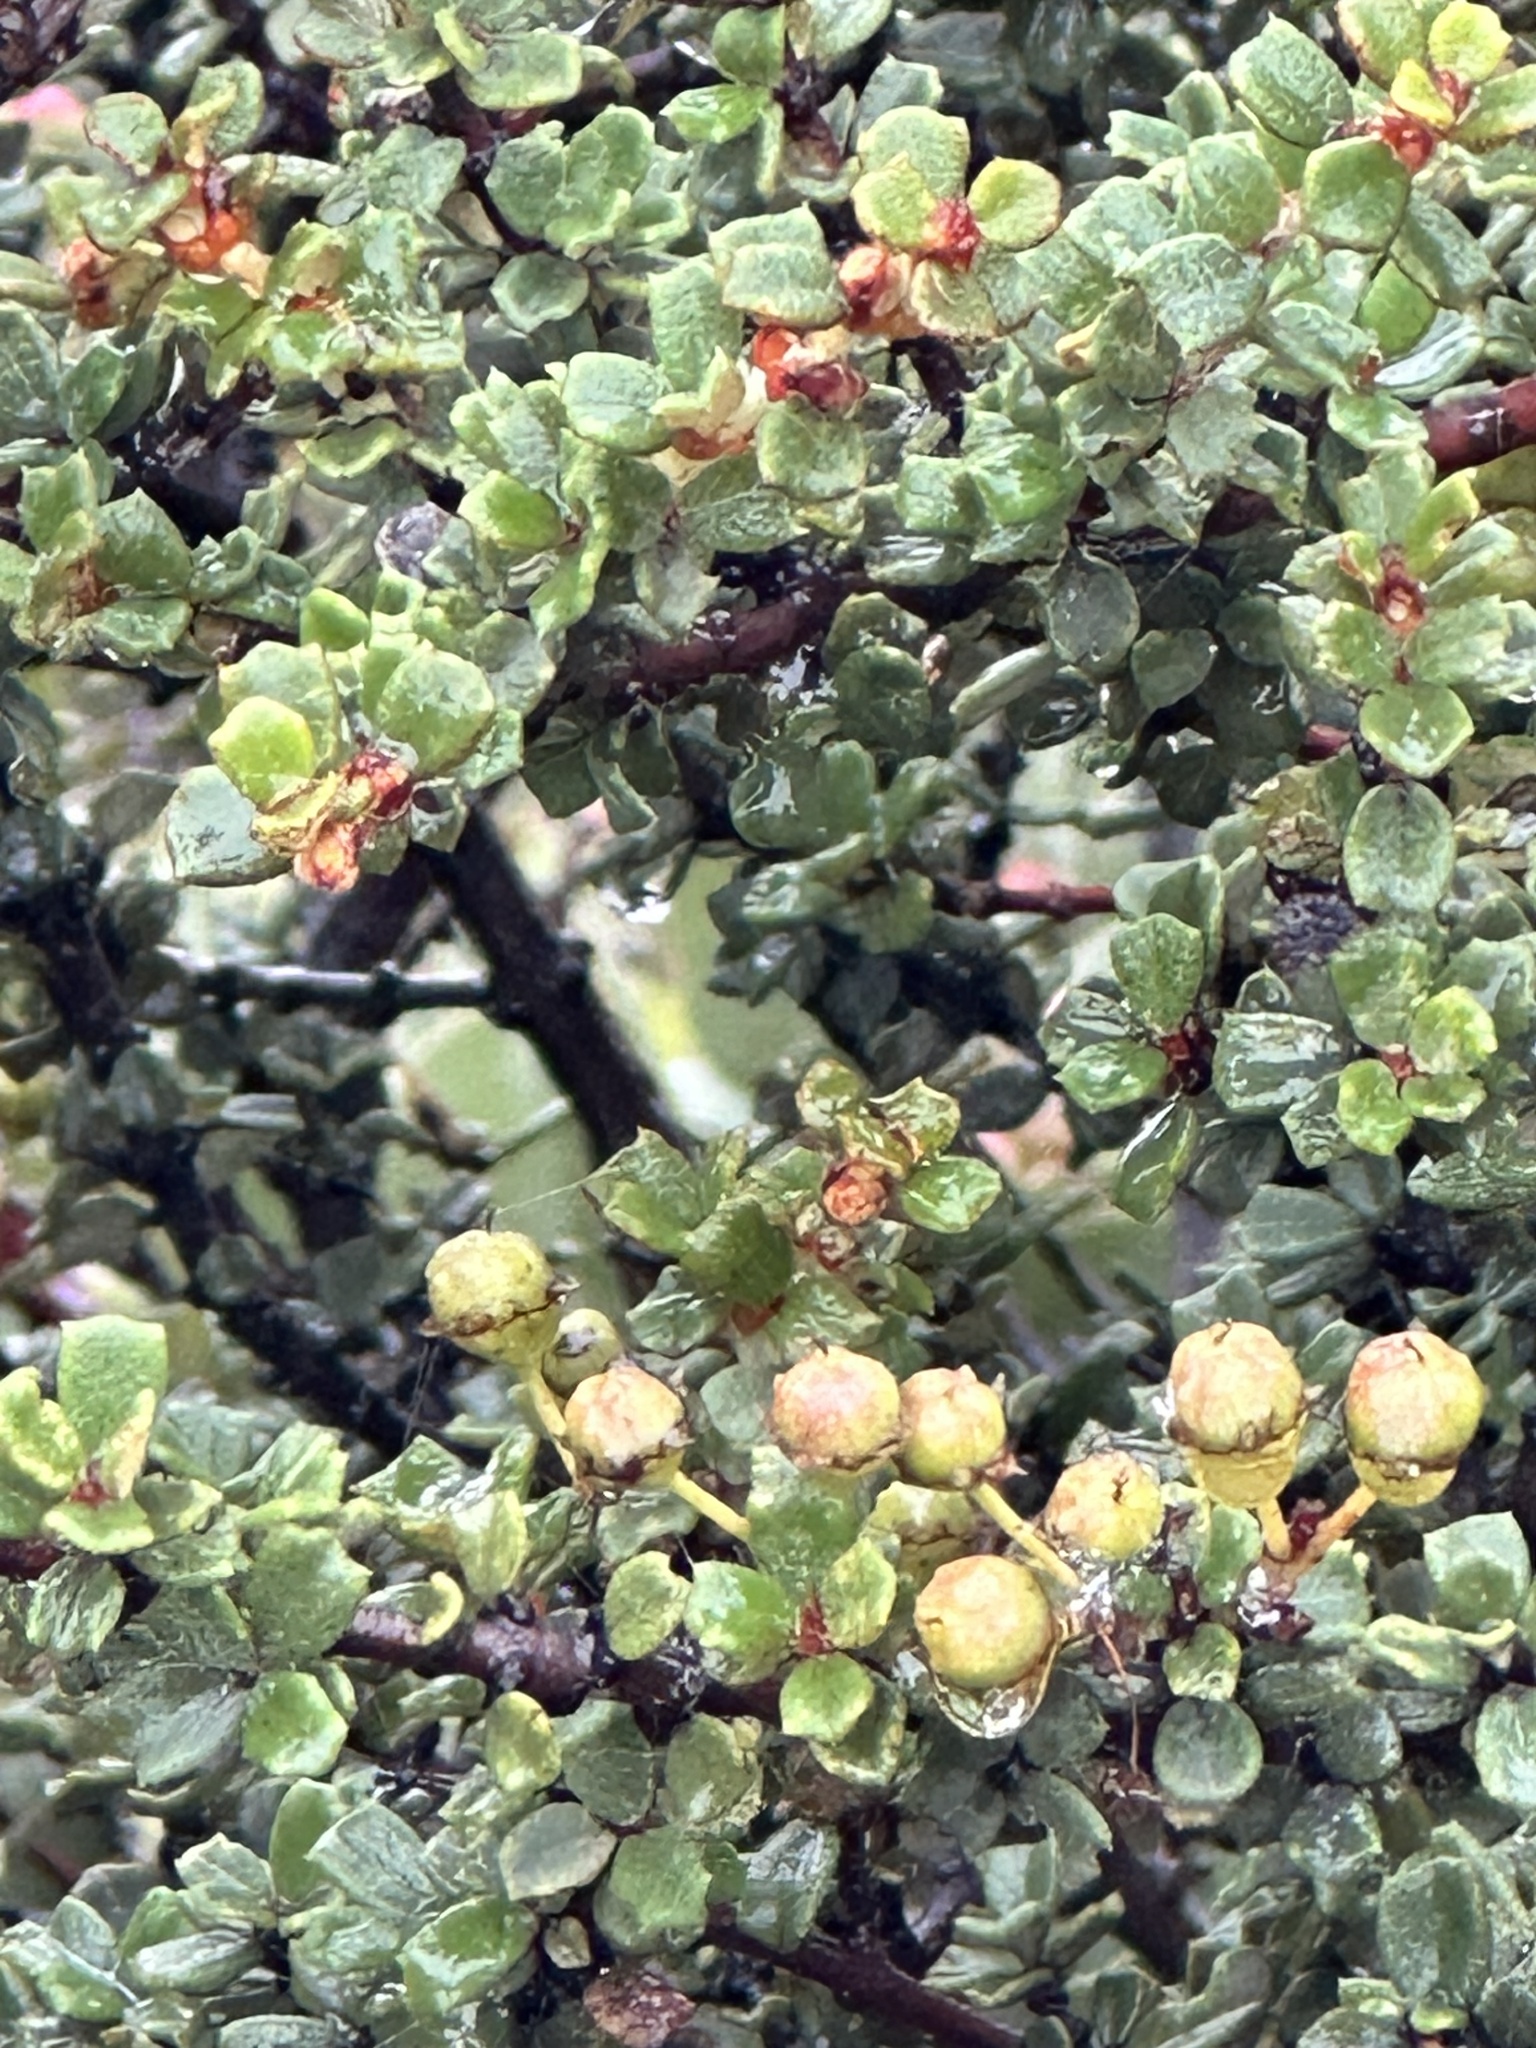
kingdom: Plantae
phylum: Tracheophyta
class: Magnoliopsida
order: Rosales
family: Rhamnaceae
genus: Ceanothus
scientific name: Ceanothus otayensis
